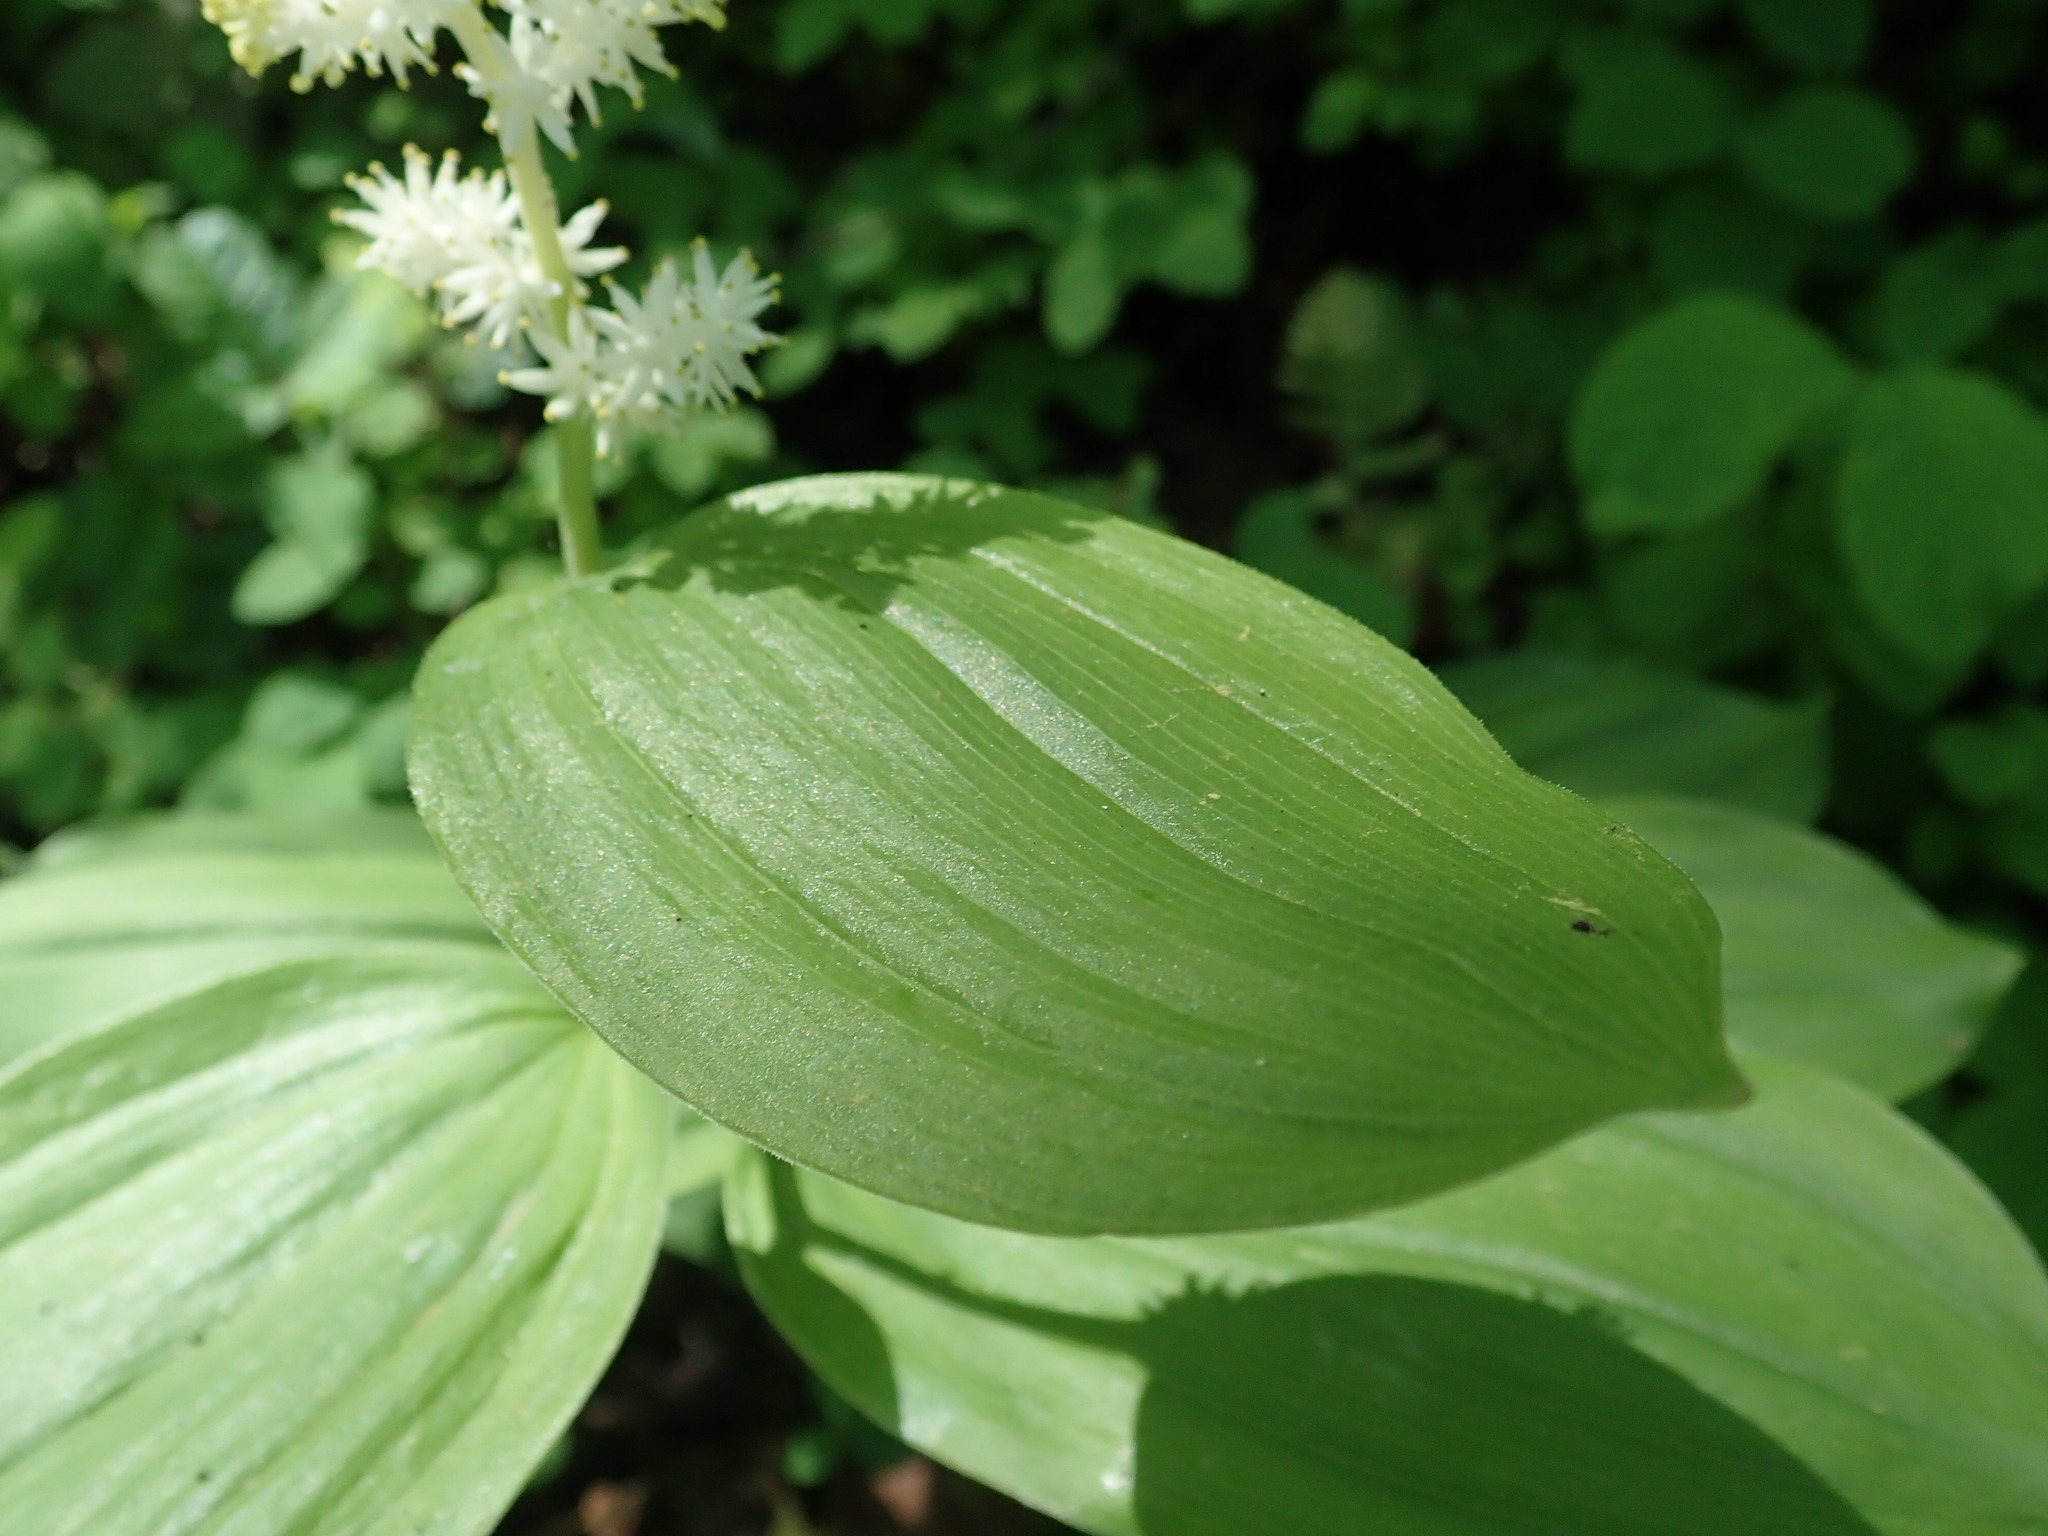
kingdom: Plantae
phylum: Tracheophyta
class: Liliopsida
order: Asparagales
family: Asparagaceae
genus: Maianthemum
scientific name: Maianthemum racemosum
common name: False spikenard
